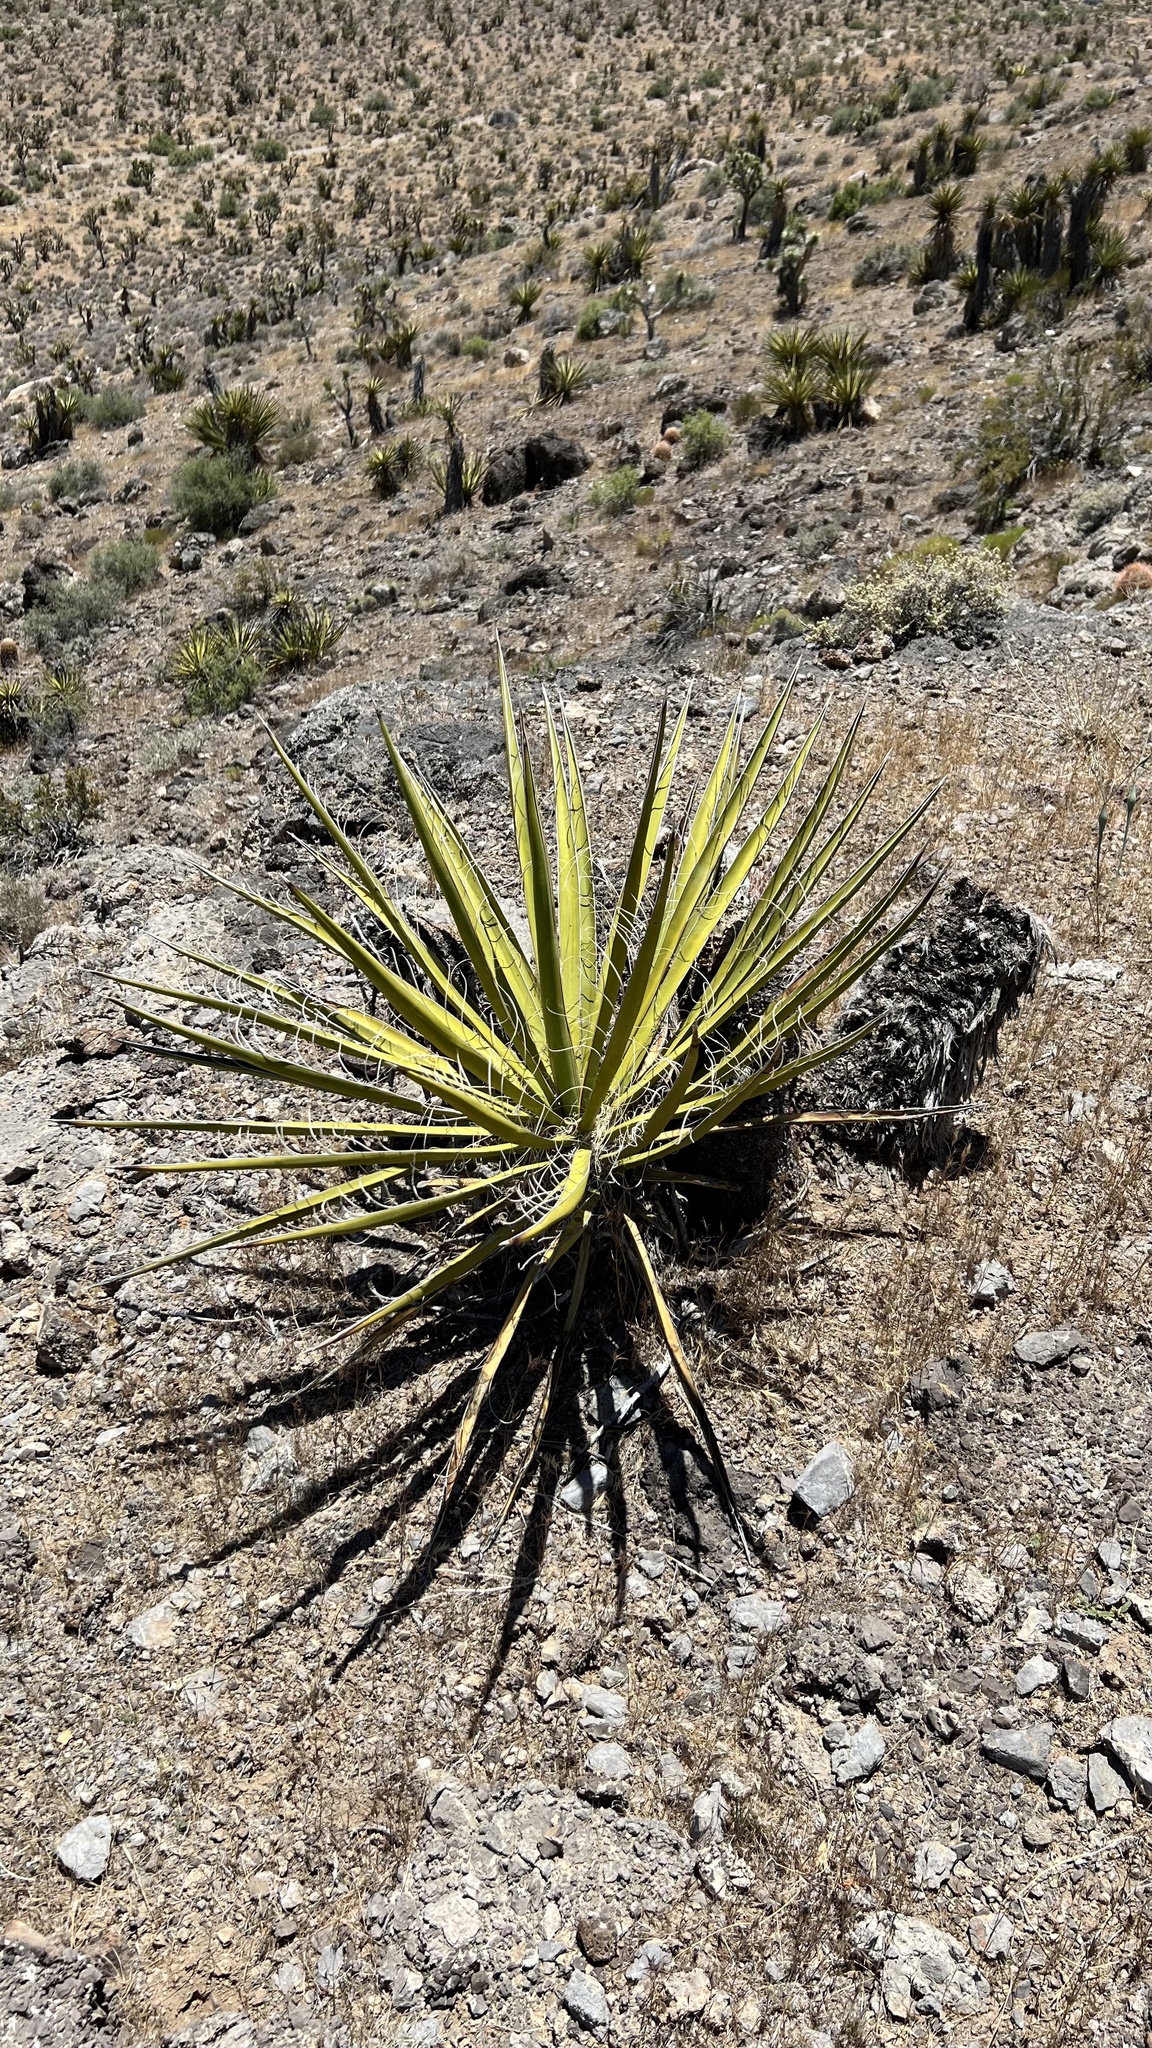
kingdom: Plantae
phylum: Tracheophyta
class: Liliopsida
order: Asparagales
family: Asparagaceae
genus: Yucca
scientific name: Yucca schidigera
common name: Mojave yucca
